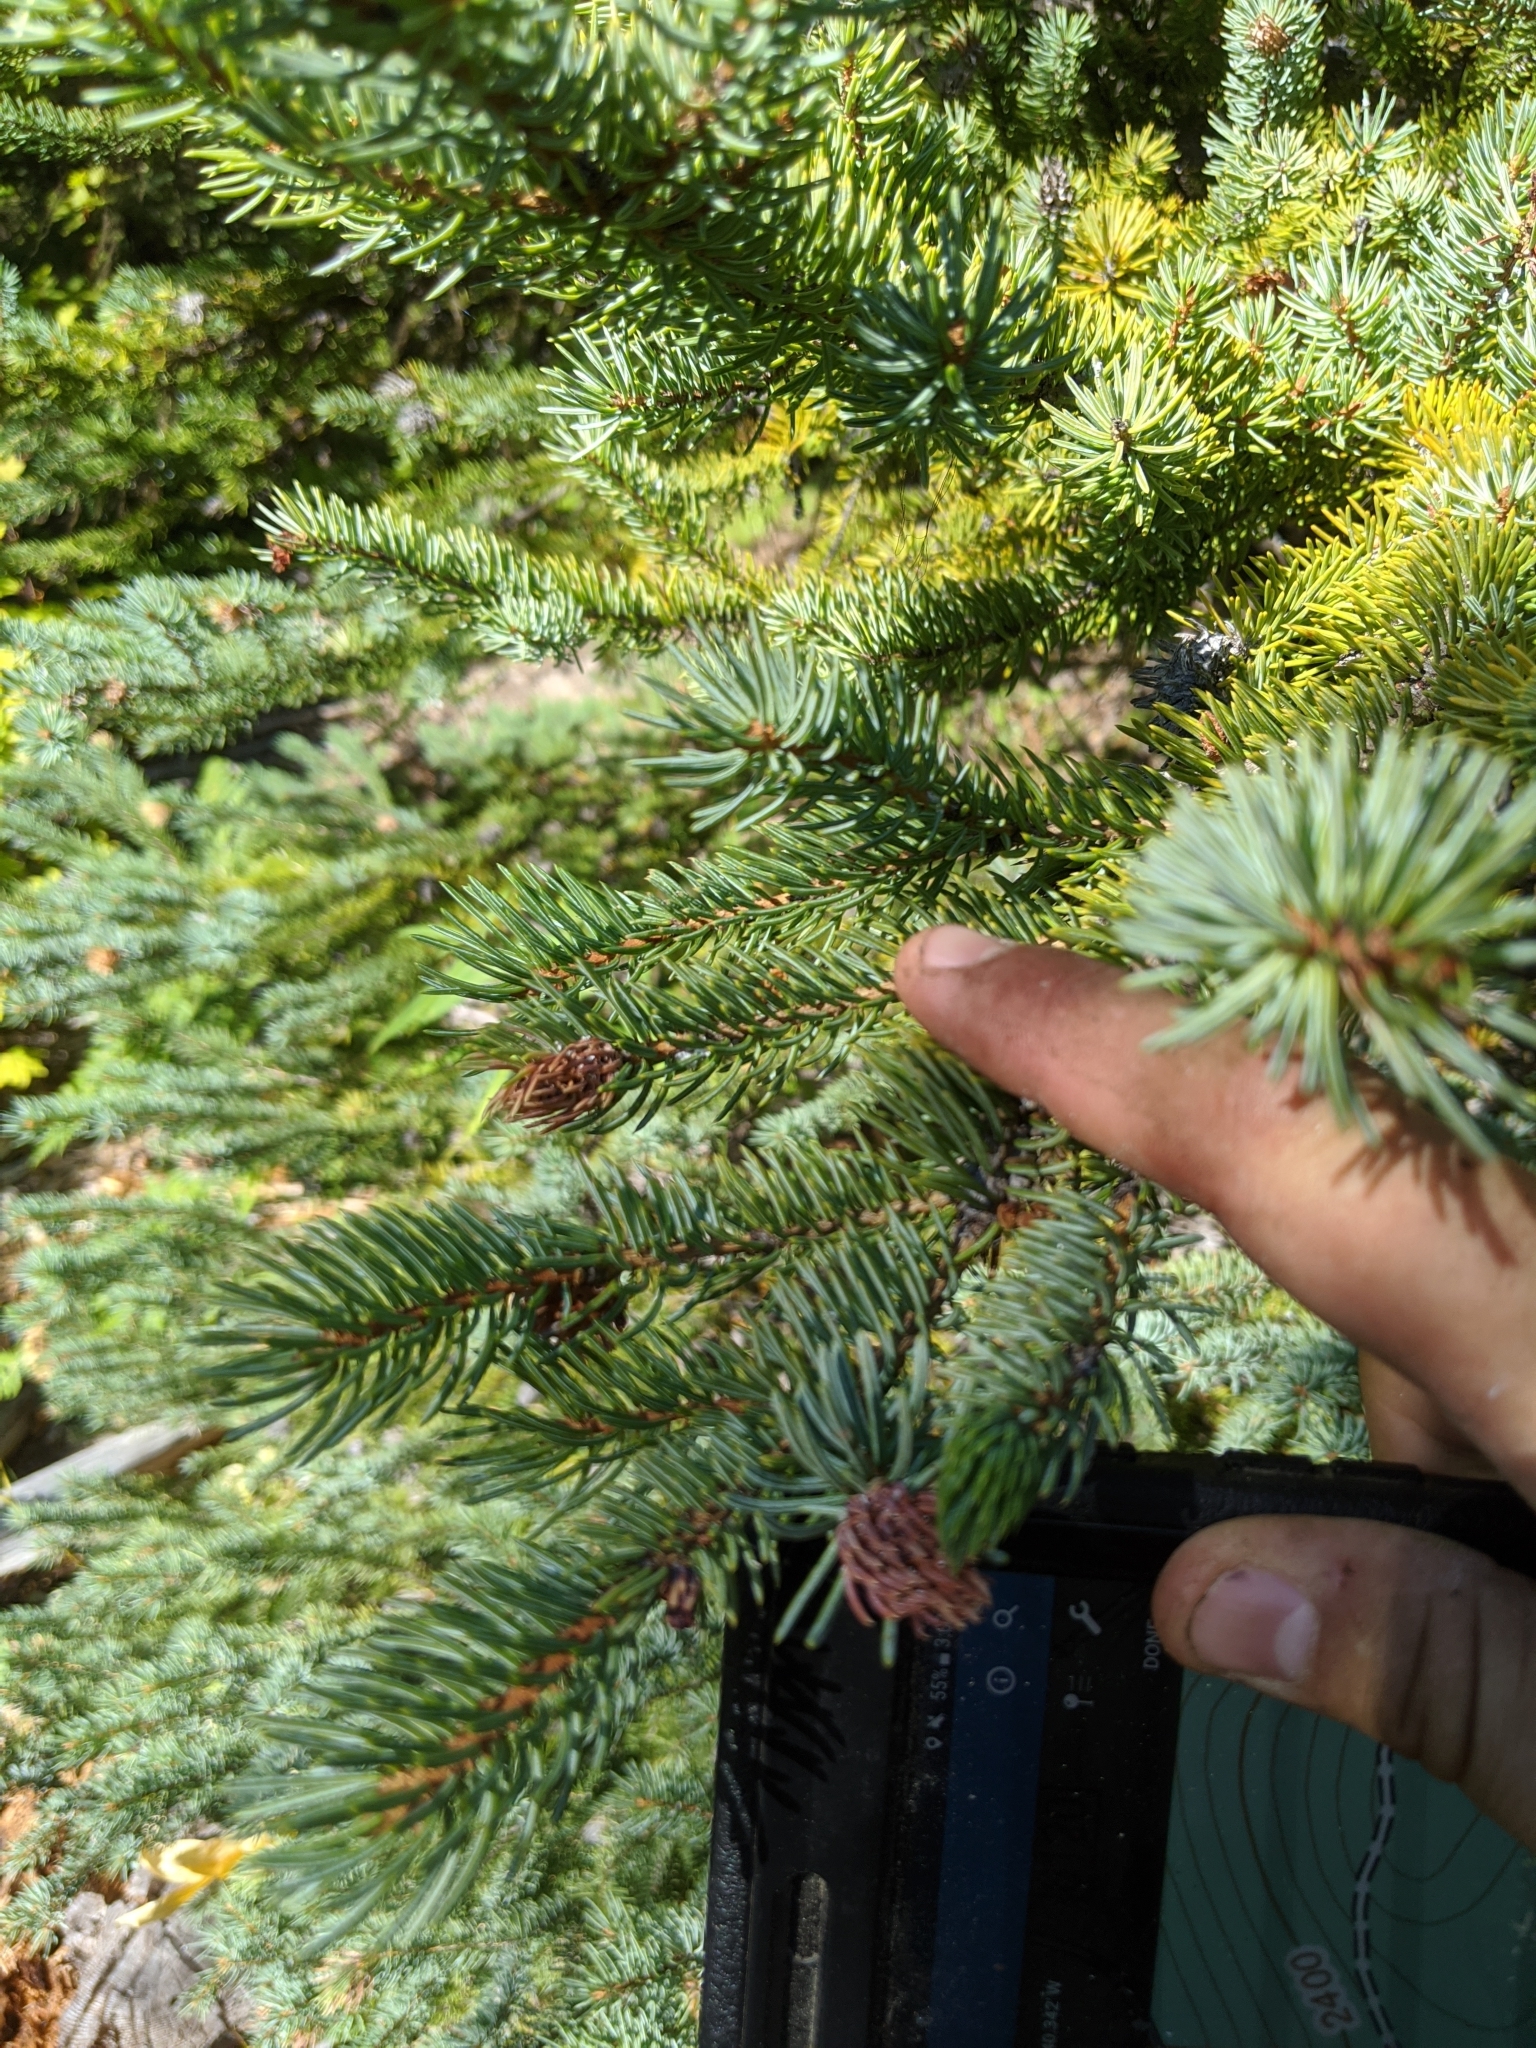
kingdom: Plantae
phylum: Tracheophyta
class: Pinopsida
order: Pinales
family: Pinaceae
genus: Picea
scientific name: Picea engelmannii
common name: Engelmann spruce
